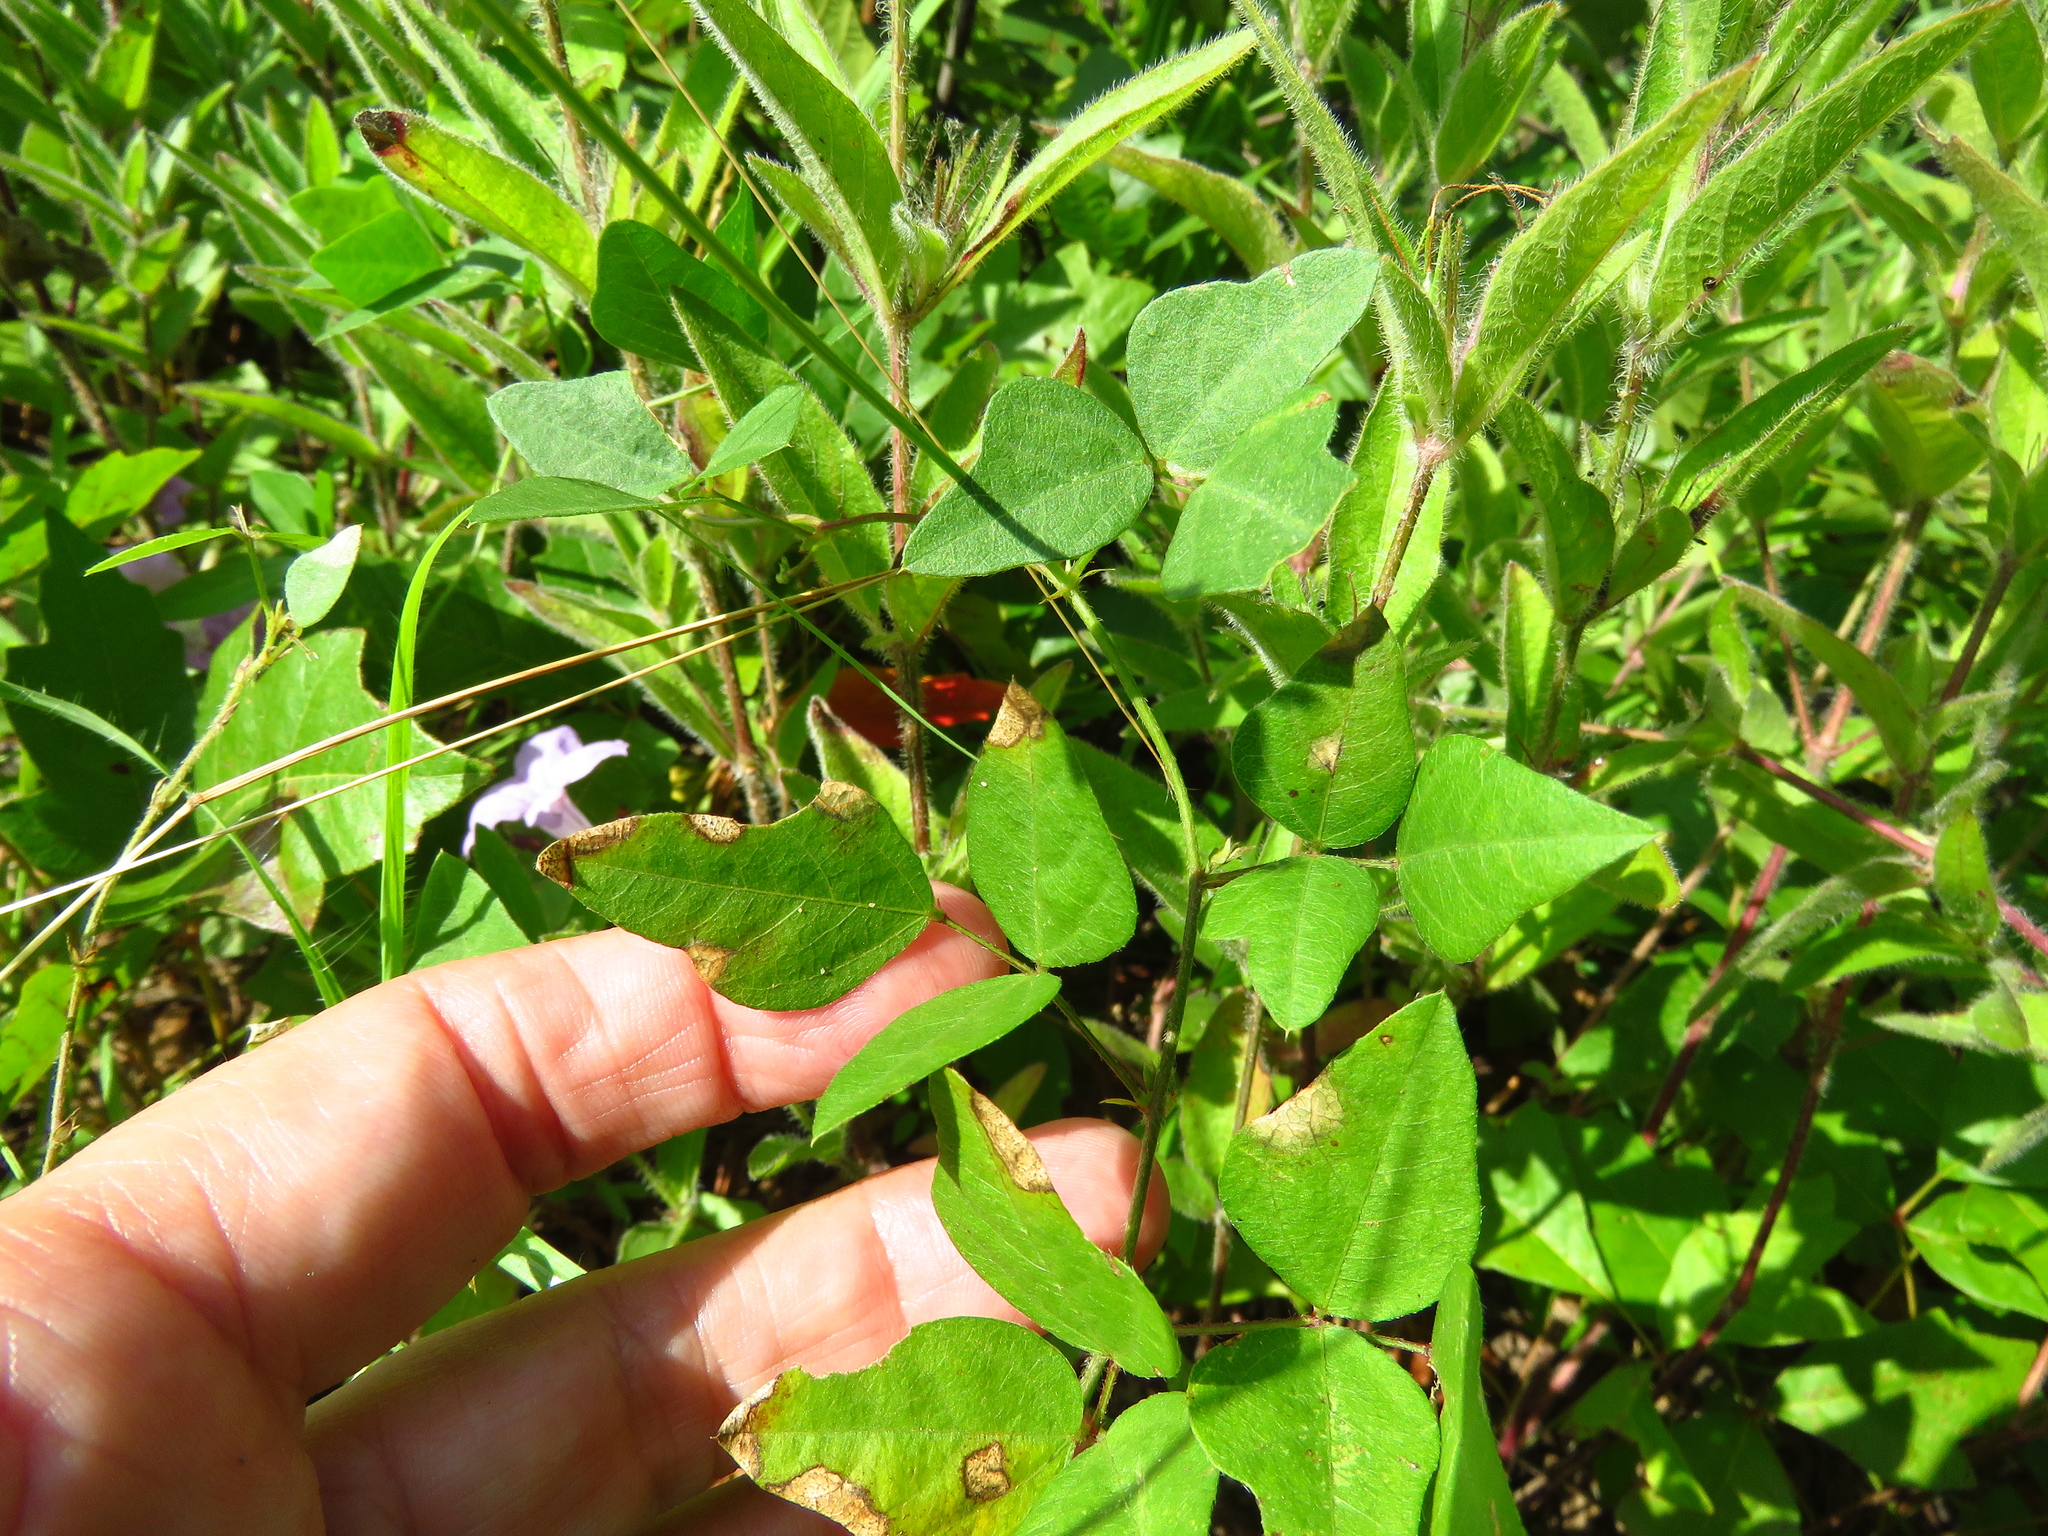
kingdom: Plantae
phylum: Tracheophyta
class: Magnoliopsida
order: Fabales
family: Fabaceae
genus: Strophostyles
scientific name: Strophostyles helvola
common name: Trailing wild bean
